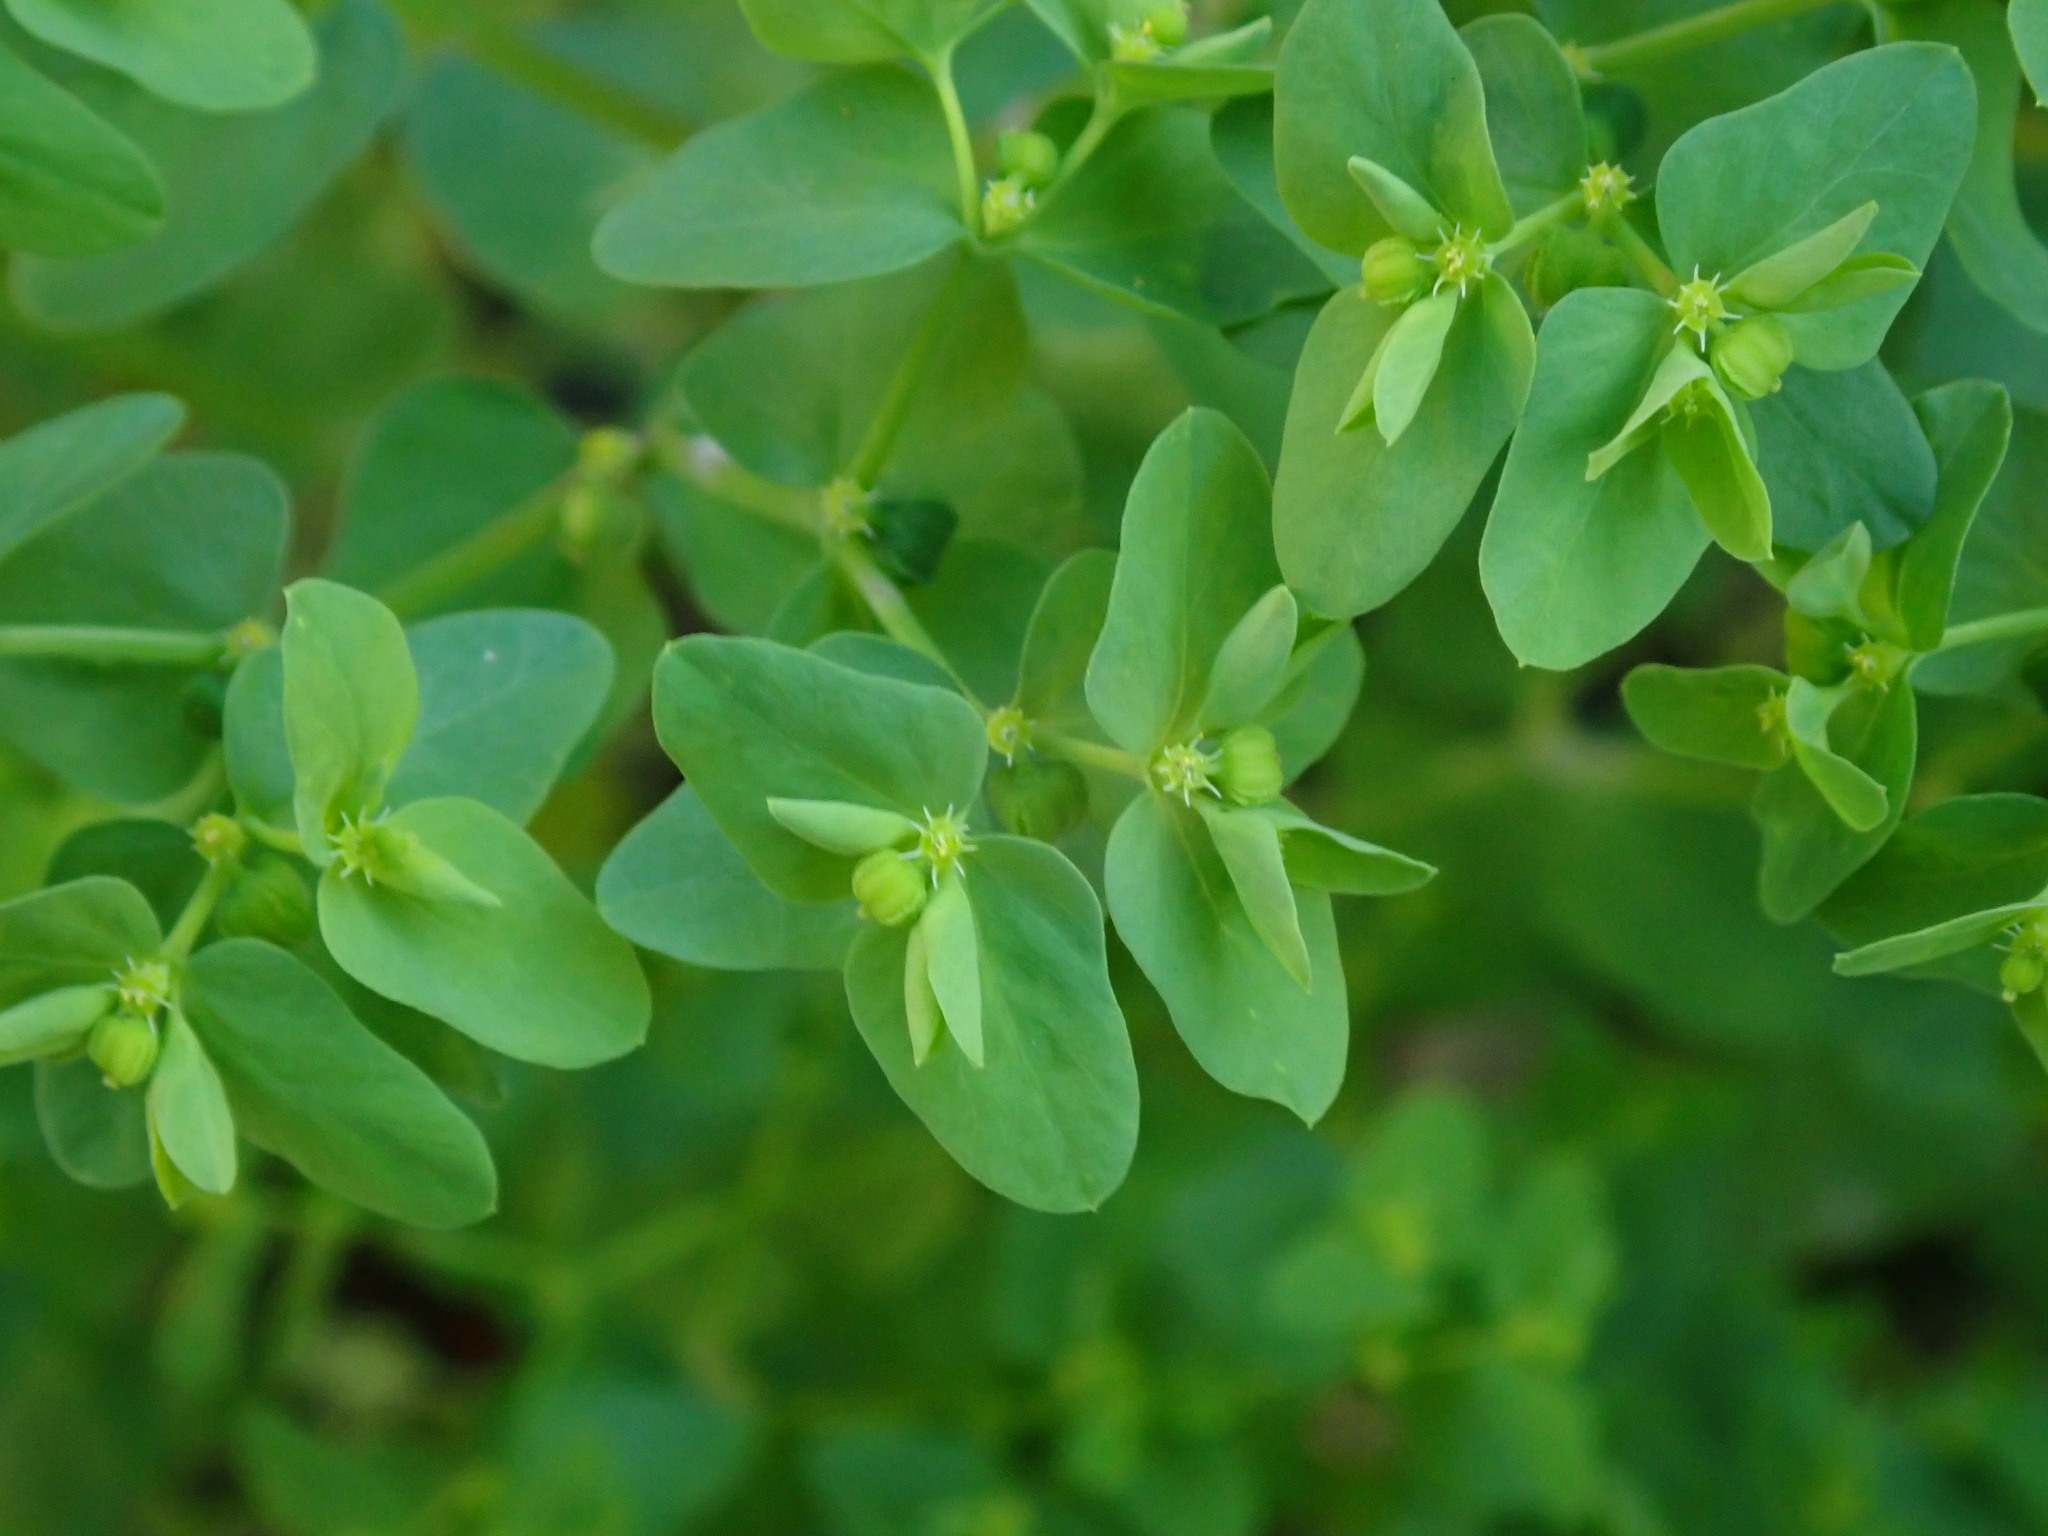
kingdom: Plantae
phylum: Tracheophyta
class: Magnoliopsida
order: Malpighiales
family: Euphorbiaceae
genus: Euphorbia
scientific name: Euphorbia peplus
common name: Petty spurge
